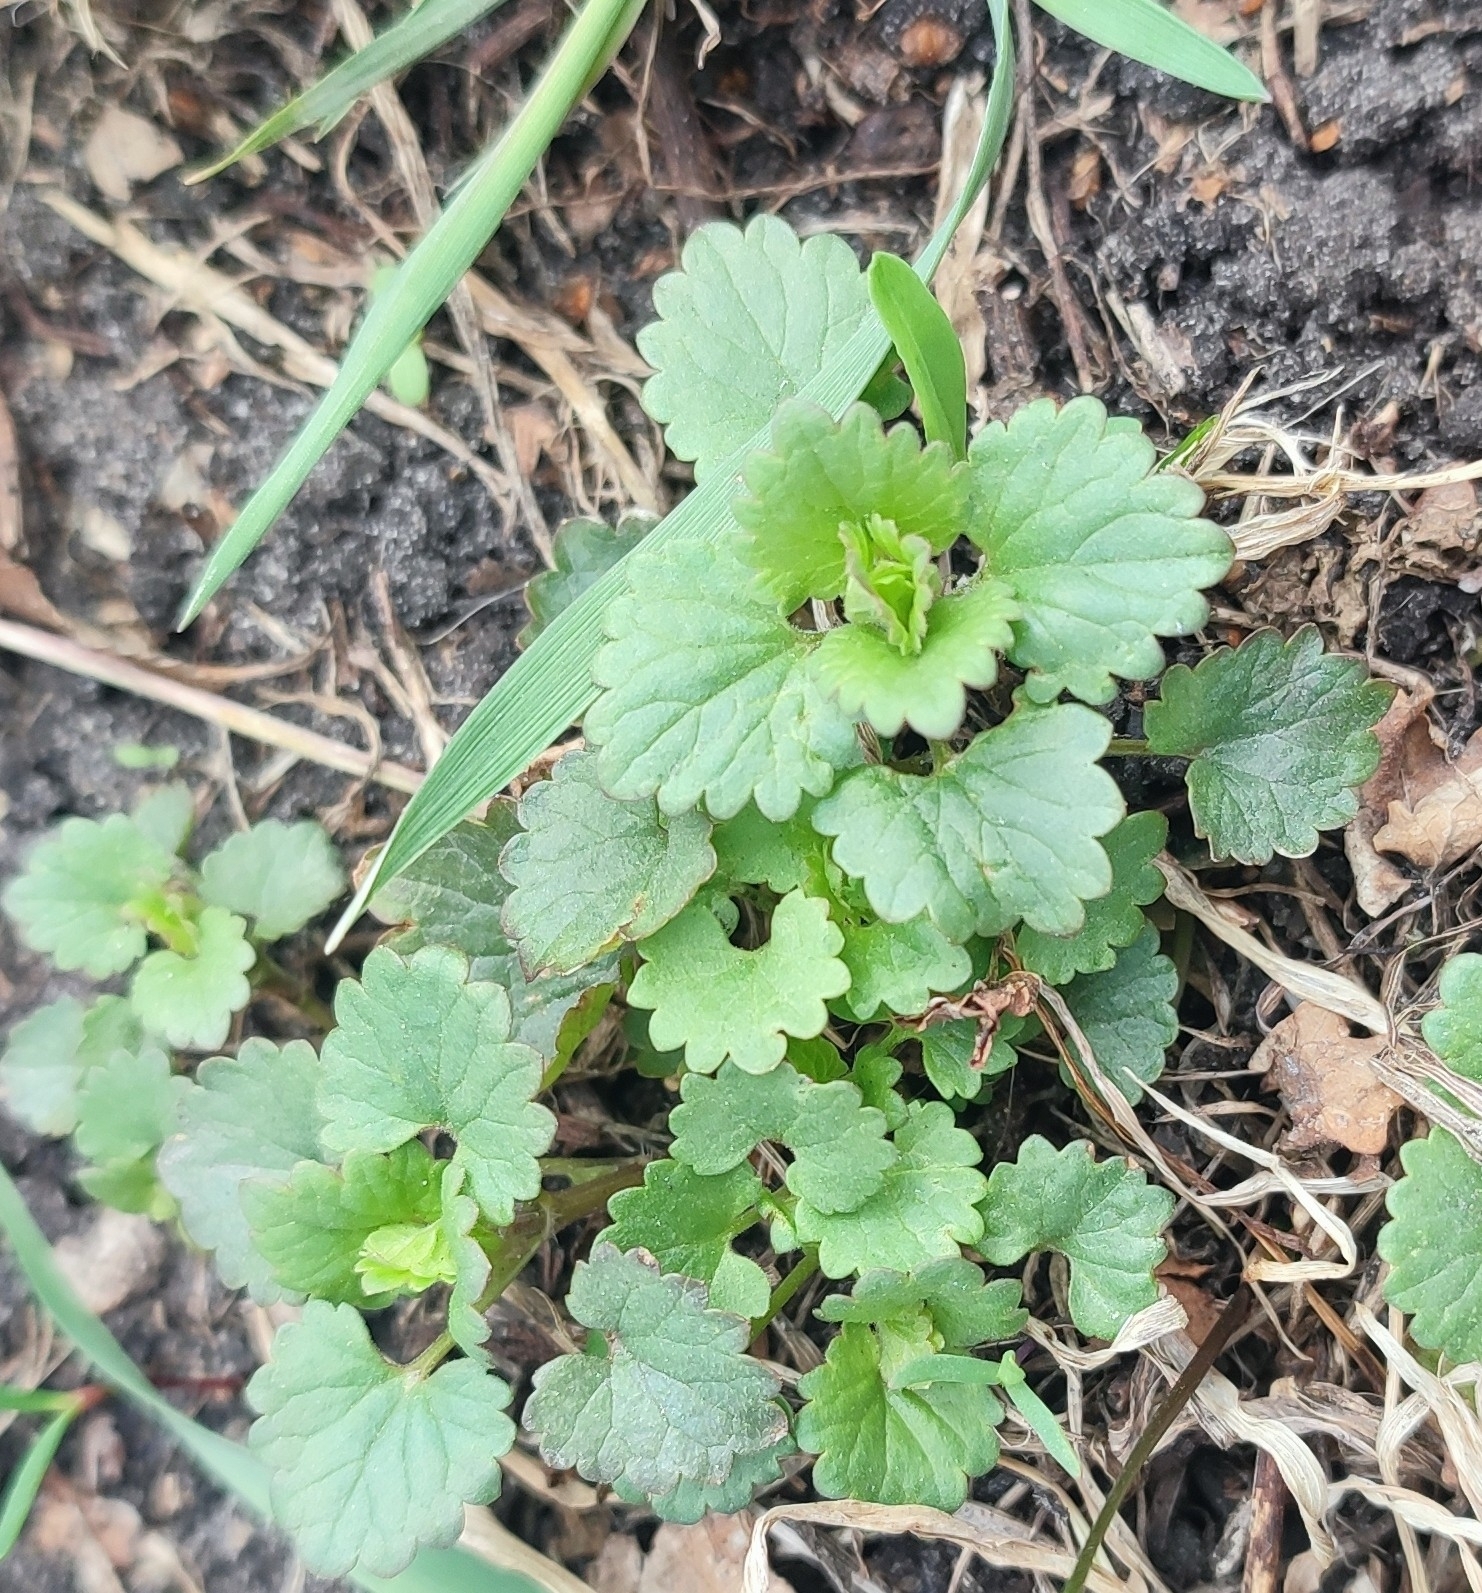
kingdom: Plantae
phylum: Tracheophyta
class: Magnoliopsida
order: Lamiales
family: Lamiaceae
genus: Glechoma
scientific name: Glechoma hederacea
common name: Ground ivy
